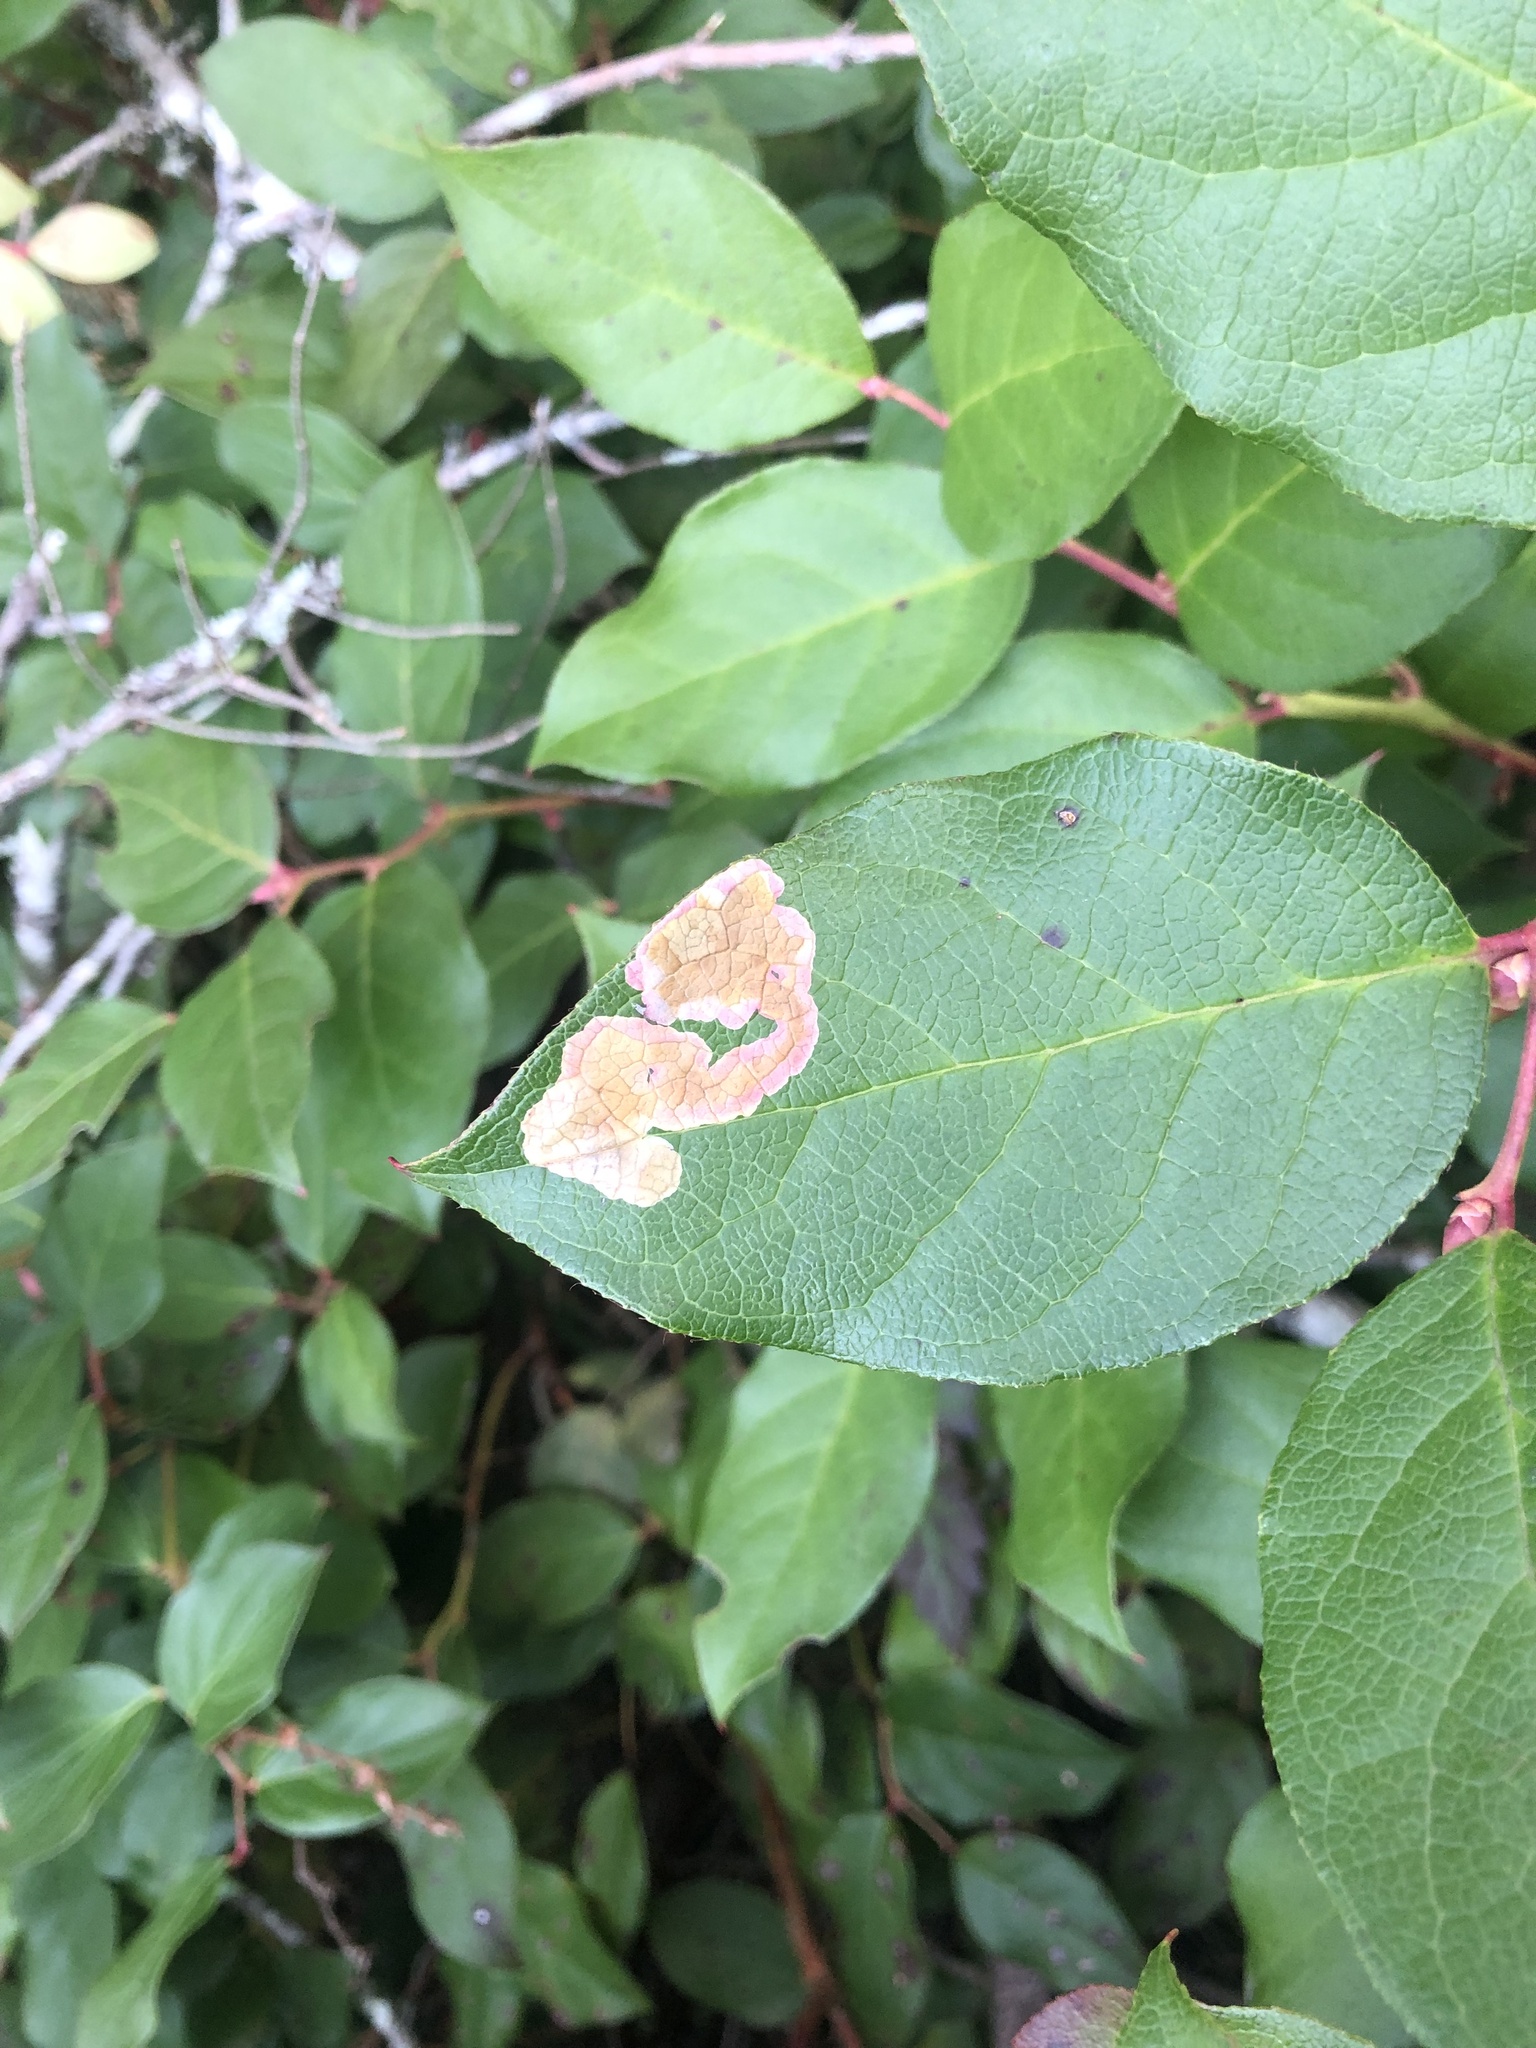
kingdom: Animalia
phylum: Arthropoda
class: Insecta
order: Lepidoptera
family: Gracillariidae
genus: Cameraria
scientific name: Cameraria gaultheriella
